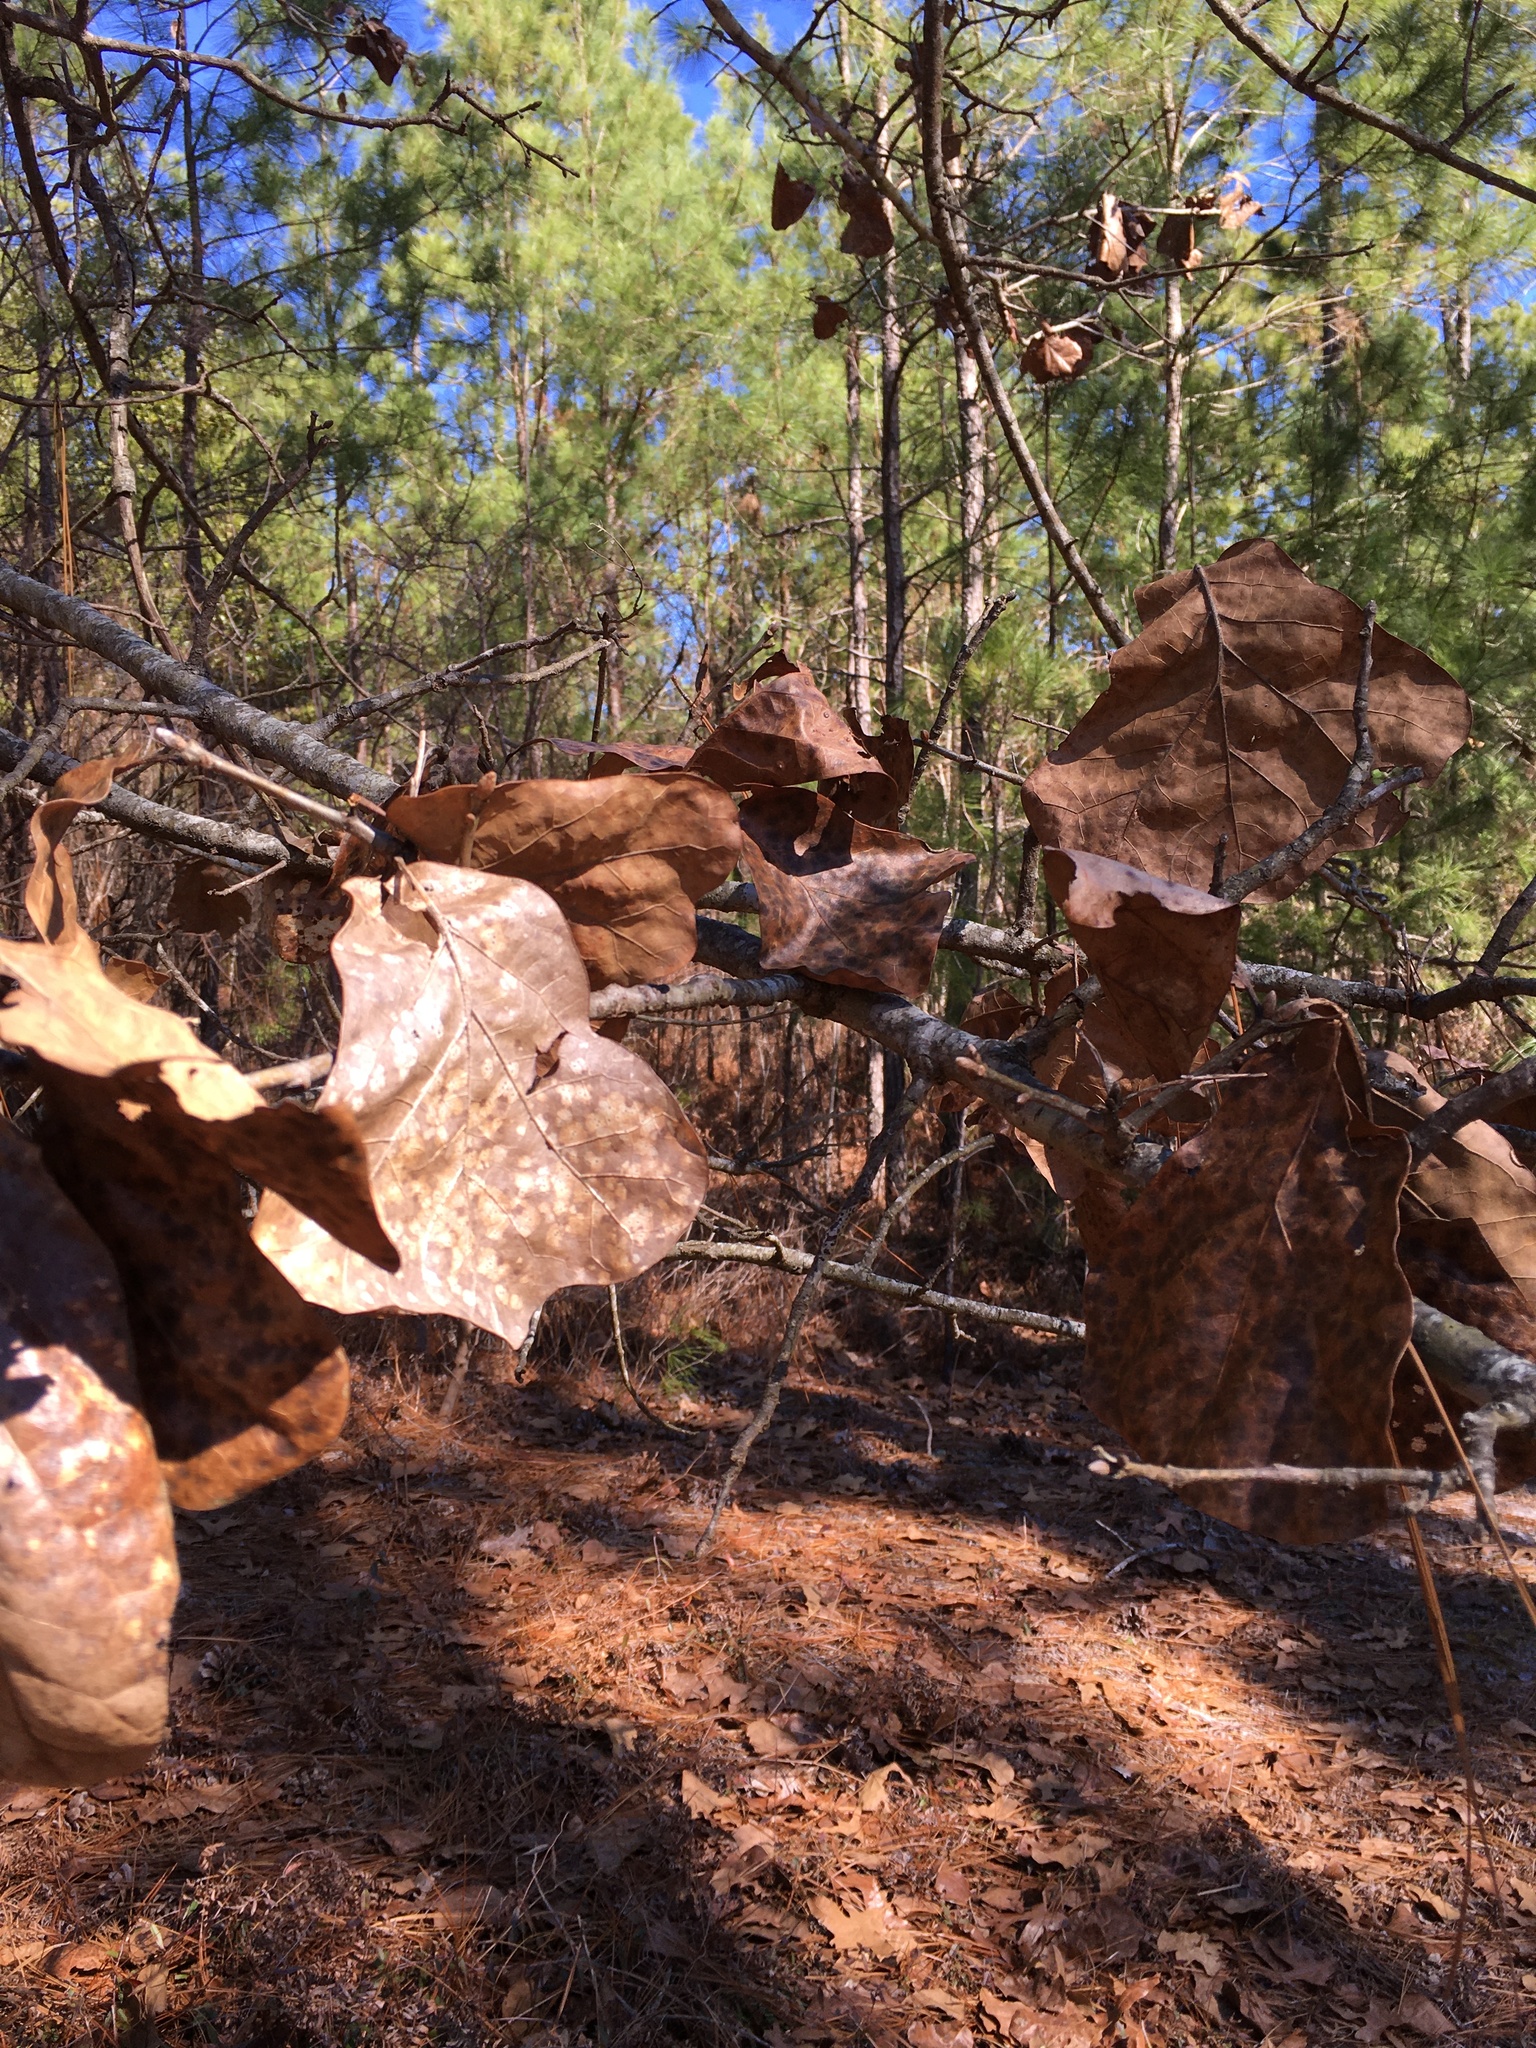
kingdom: Plantae
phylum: Tracheophyta
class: Magnoliopsida
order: Fagales
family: Fagaceae
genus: Quercus
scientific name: Quercus marilandica
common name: Blackjack oak
